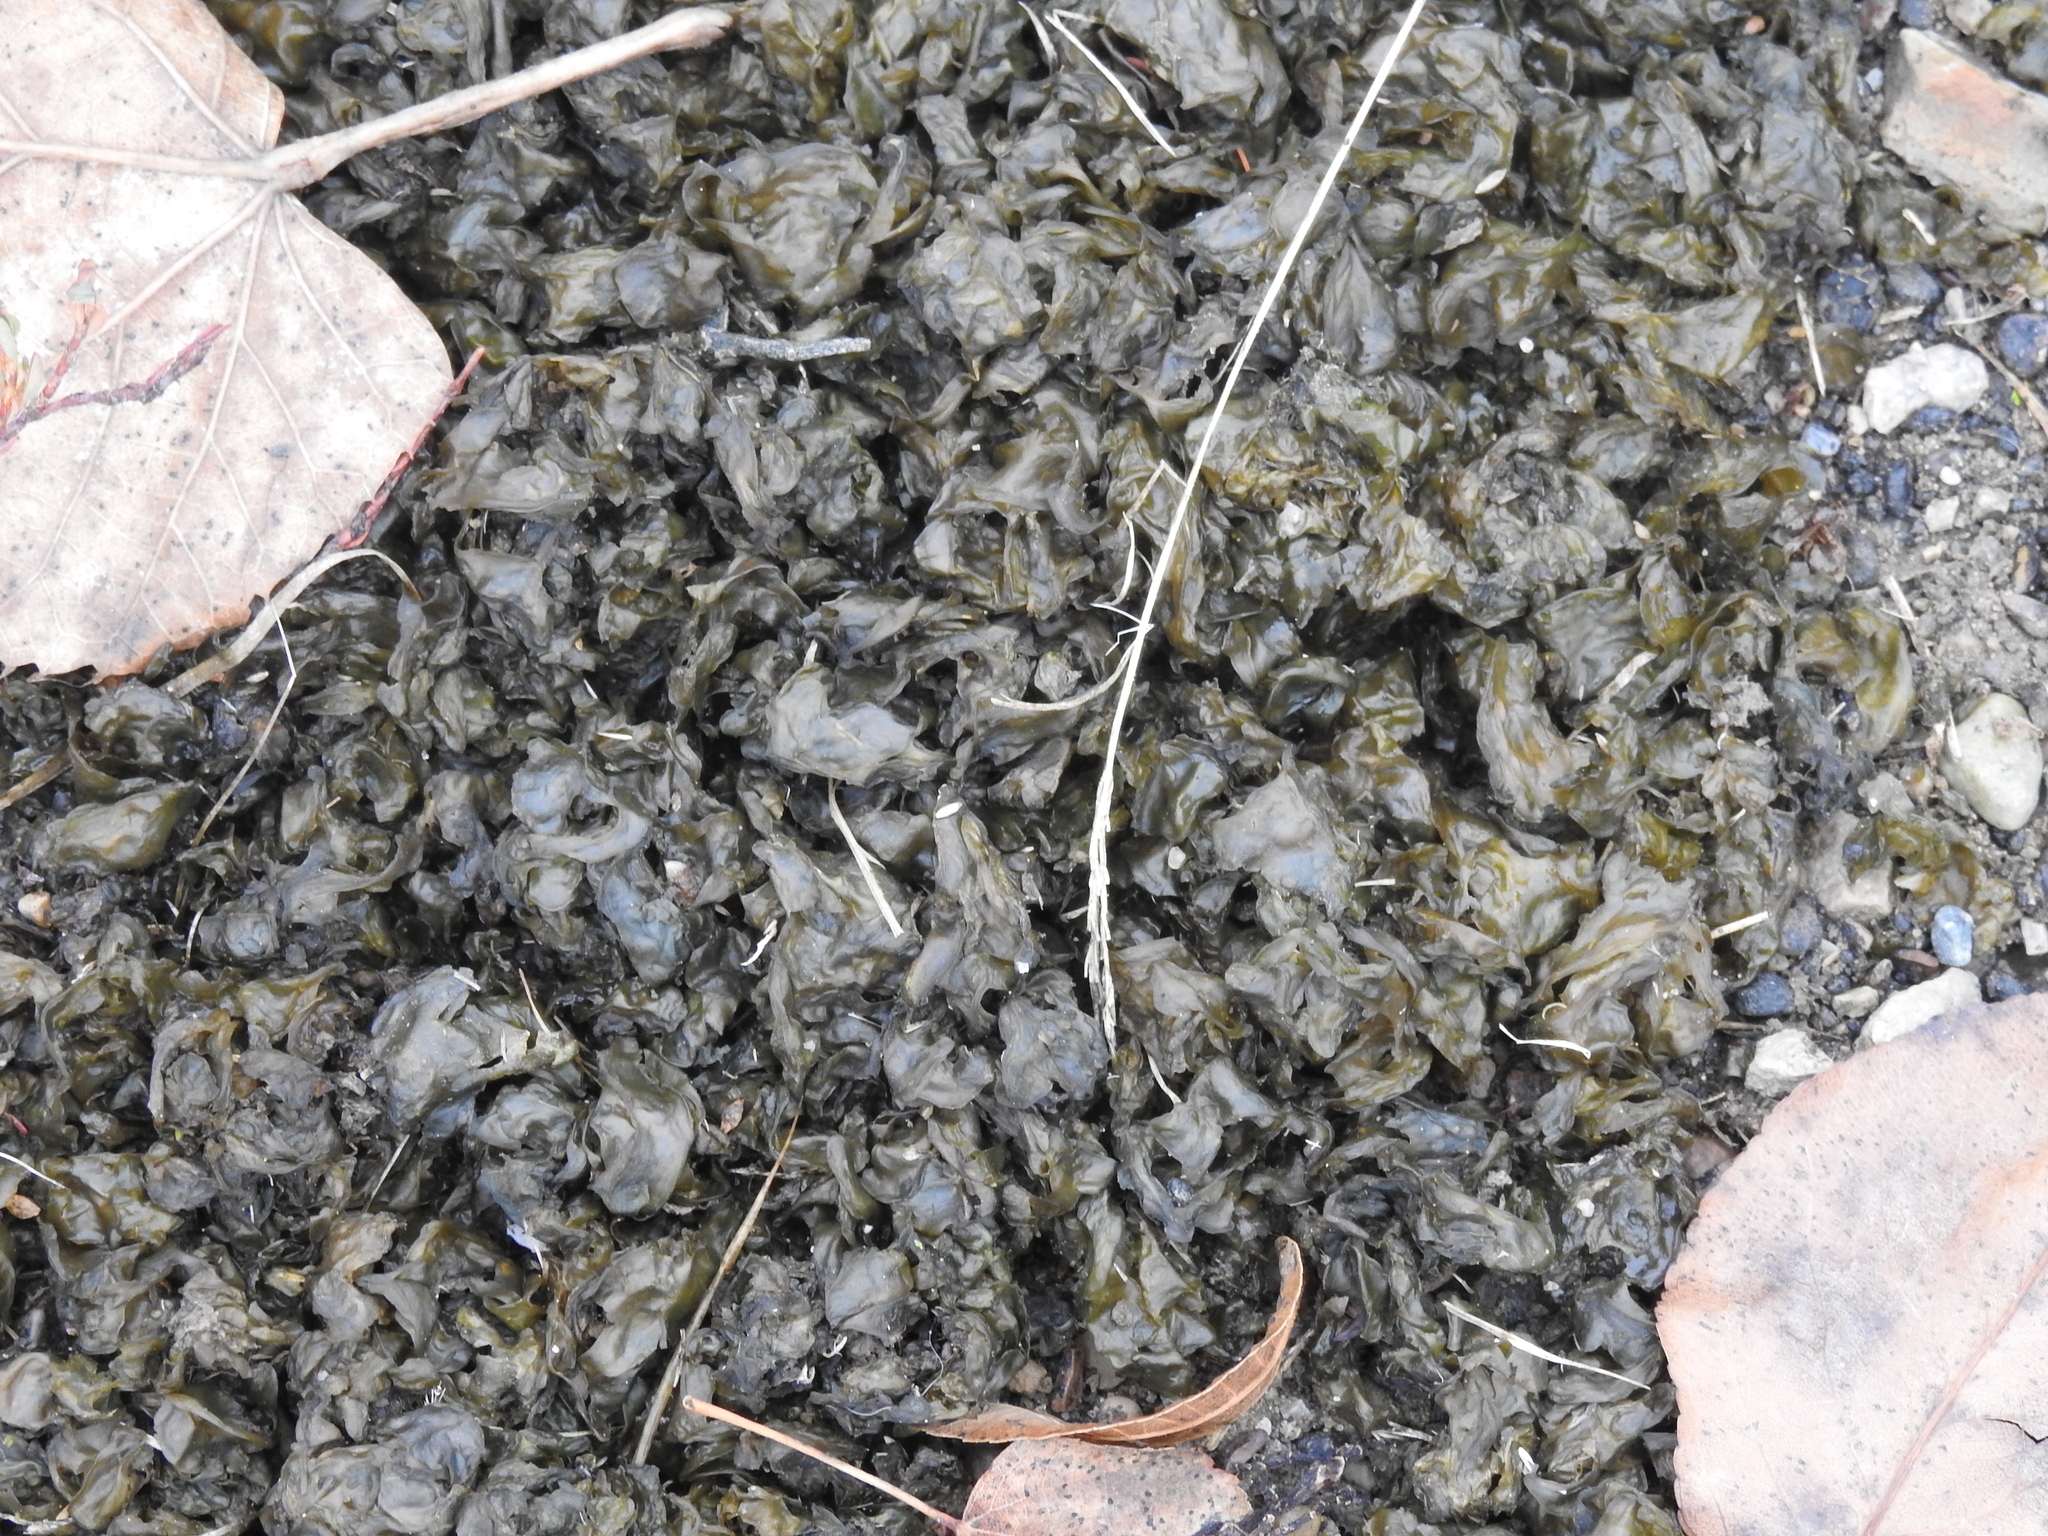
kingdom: Bacteria
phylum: Cyanobacteria
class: Cyanobacteriia
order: Cyanobacteriales
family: Nostocaceae
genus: Nostoc
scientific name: Nostoc commune
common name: Star jelly
